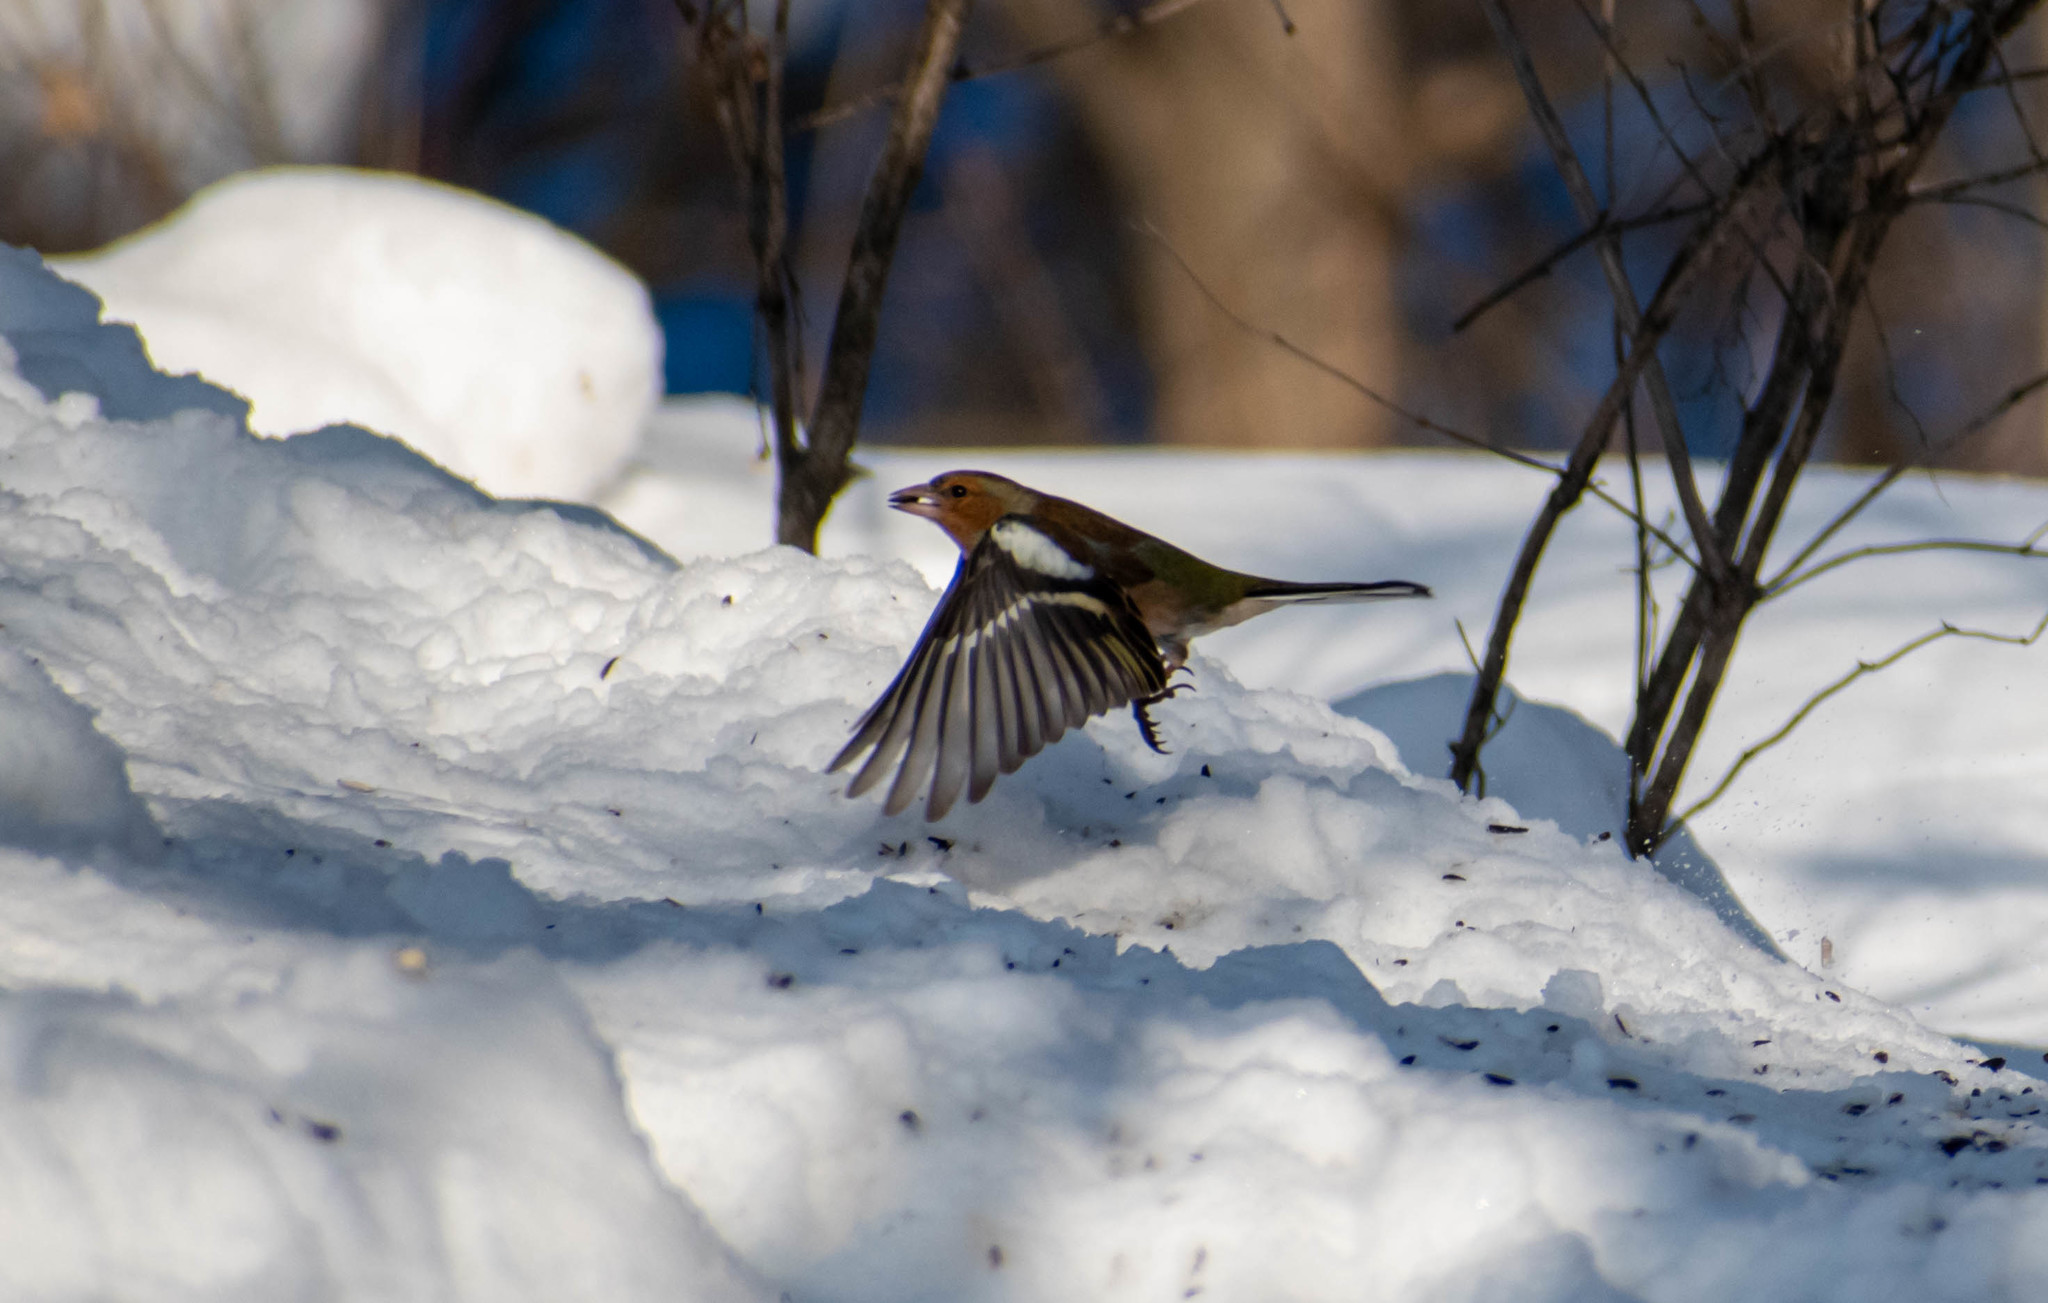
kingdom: Animalia
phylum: Chordata
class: Aves
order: Passeriformes
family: Fringillidae
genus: Fringilla
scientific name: Fringilla coelebs
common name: Common chaffinch
